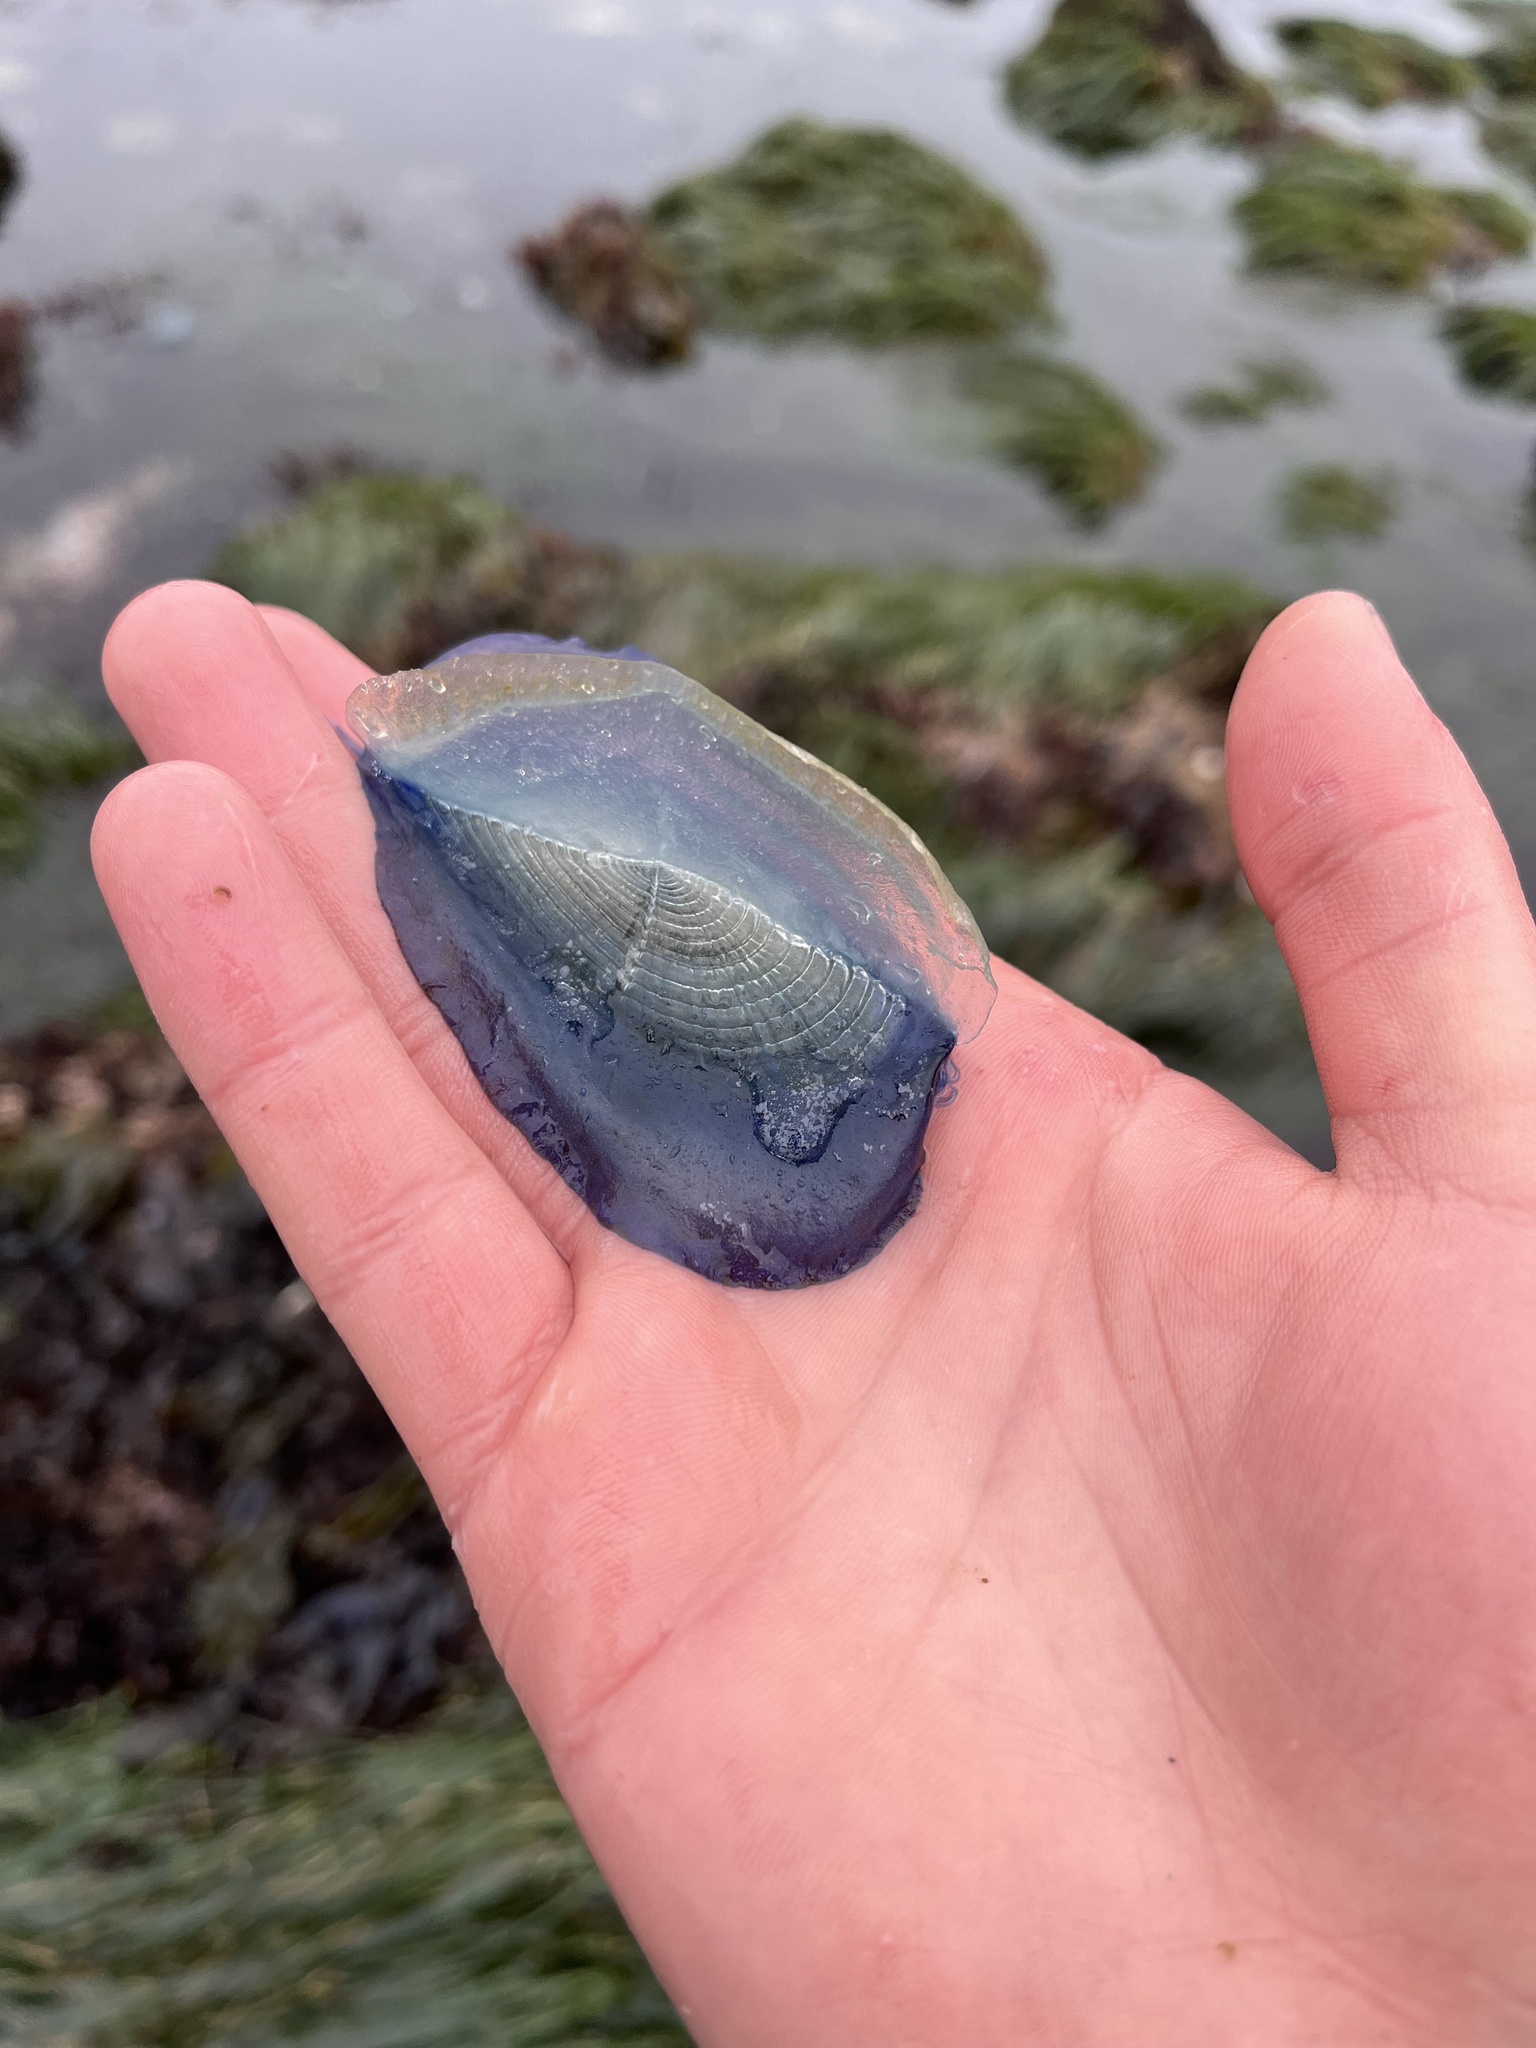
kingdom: Animalia
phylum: Cnidaria
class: Hydrozoa
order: Anthoathecata
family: Porpitidae
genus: Velella
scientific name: Velella velella
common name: By-the-wind-sailor
